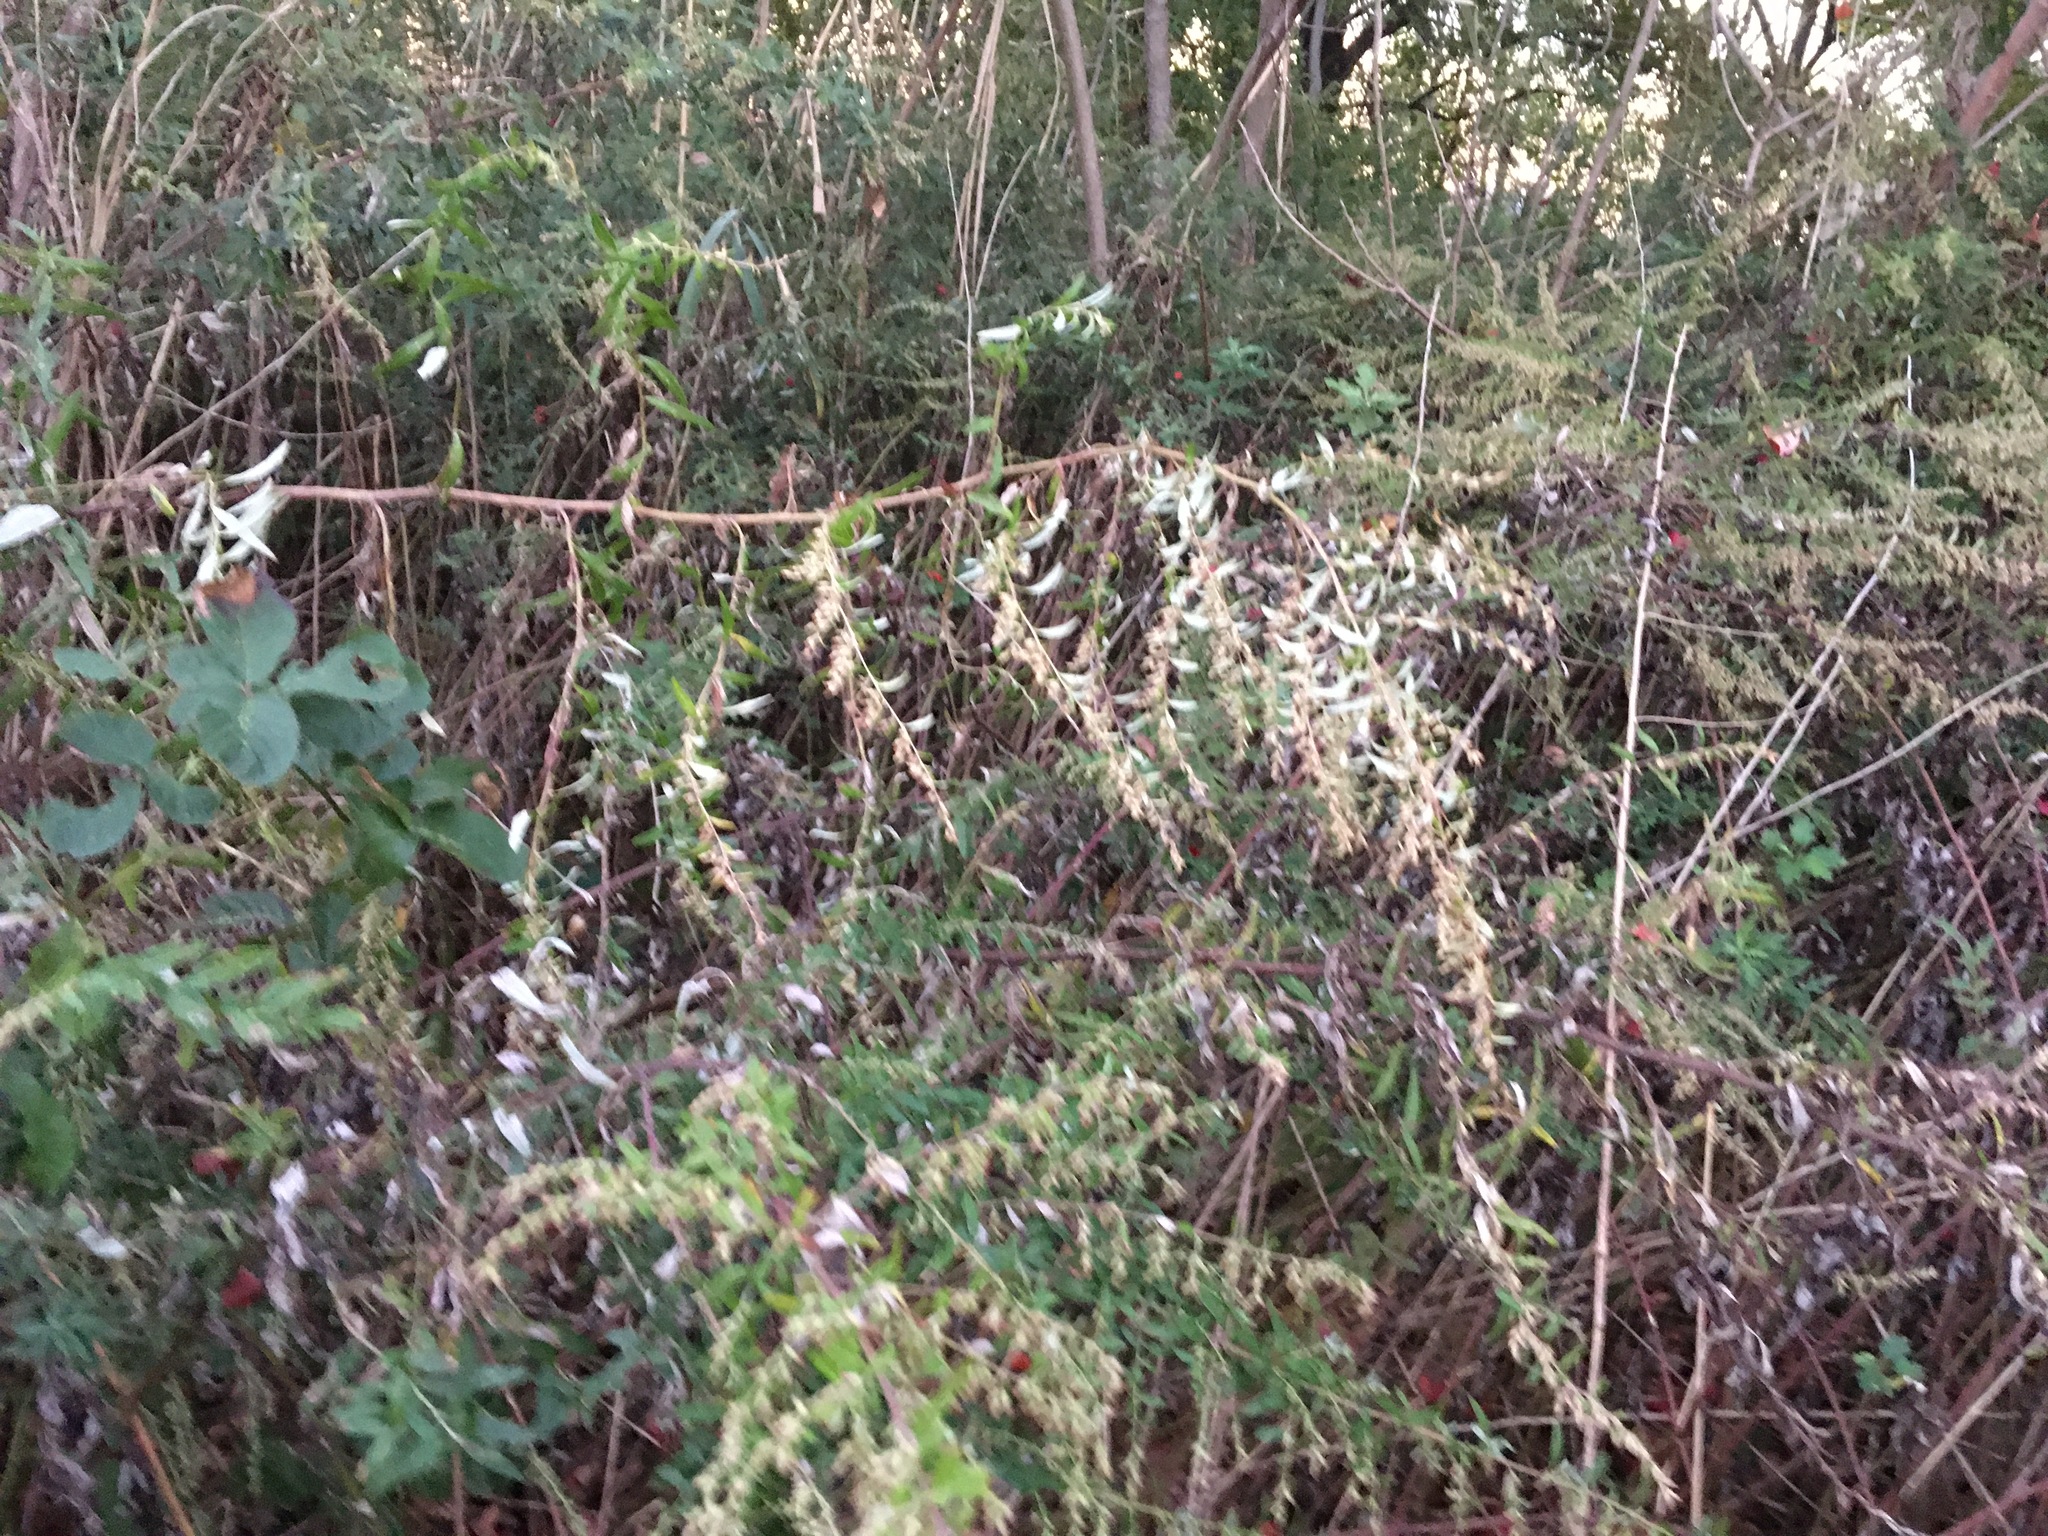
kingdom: Plantae
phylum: Tracheophyta
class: Magnoliopsida
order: Asterales
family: Asteraceae
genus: Artemisia
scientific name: Artemisia vulgaris
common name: Mugwort
